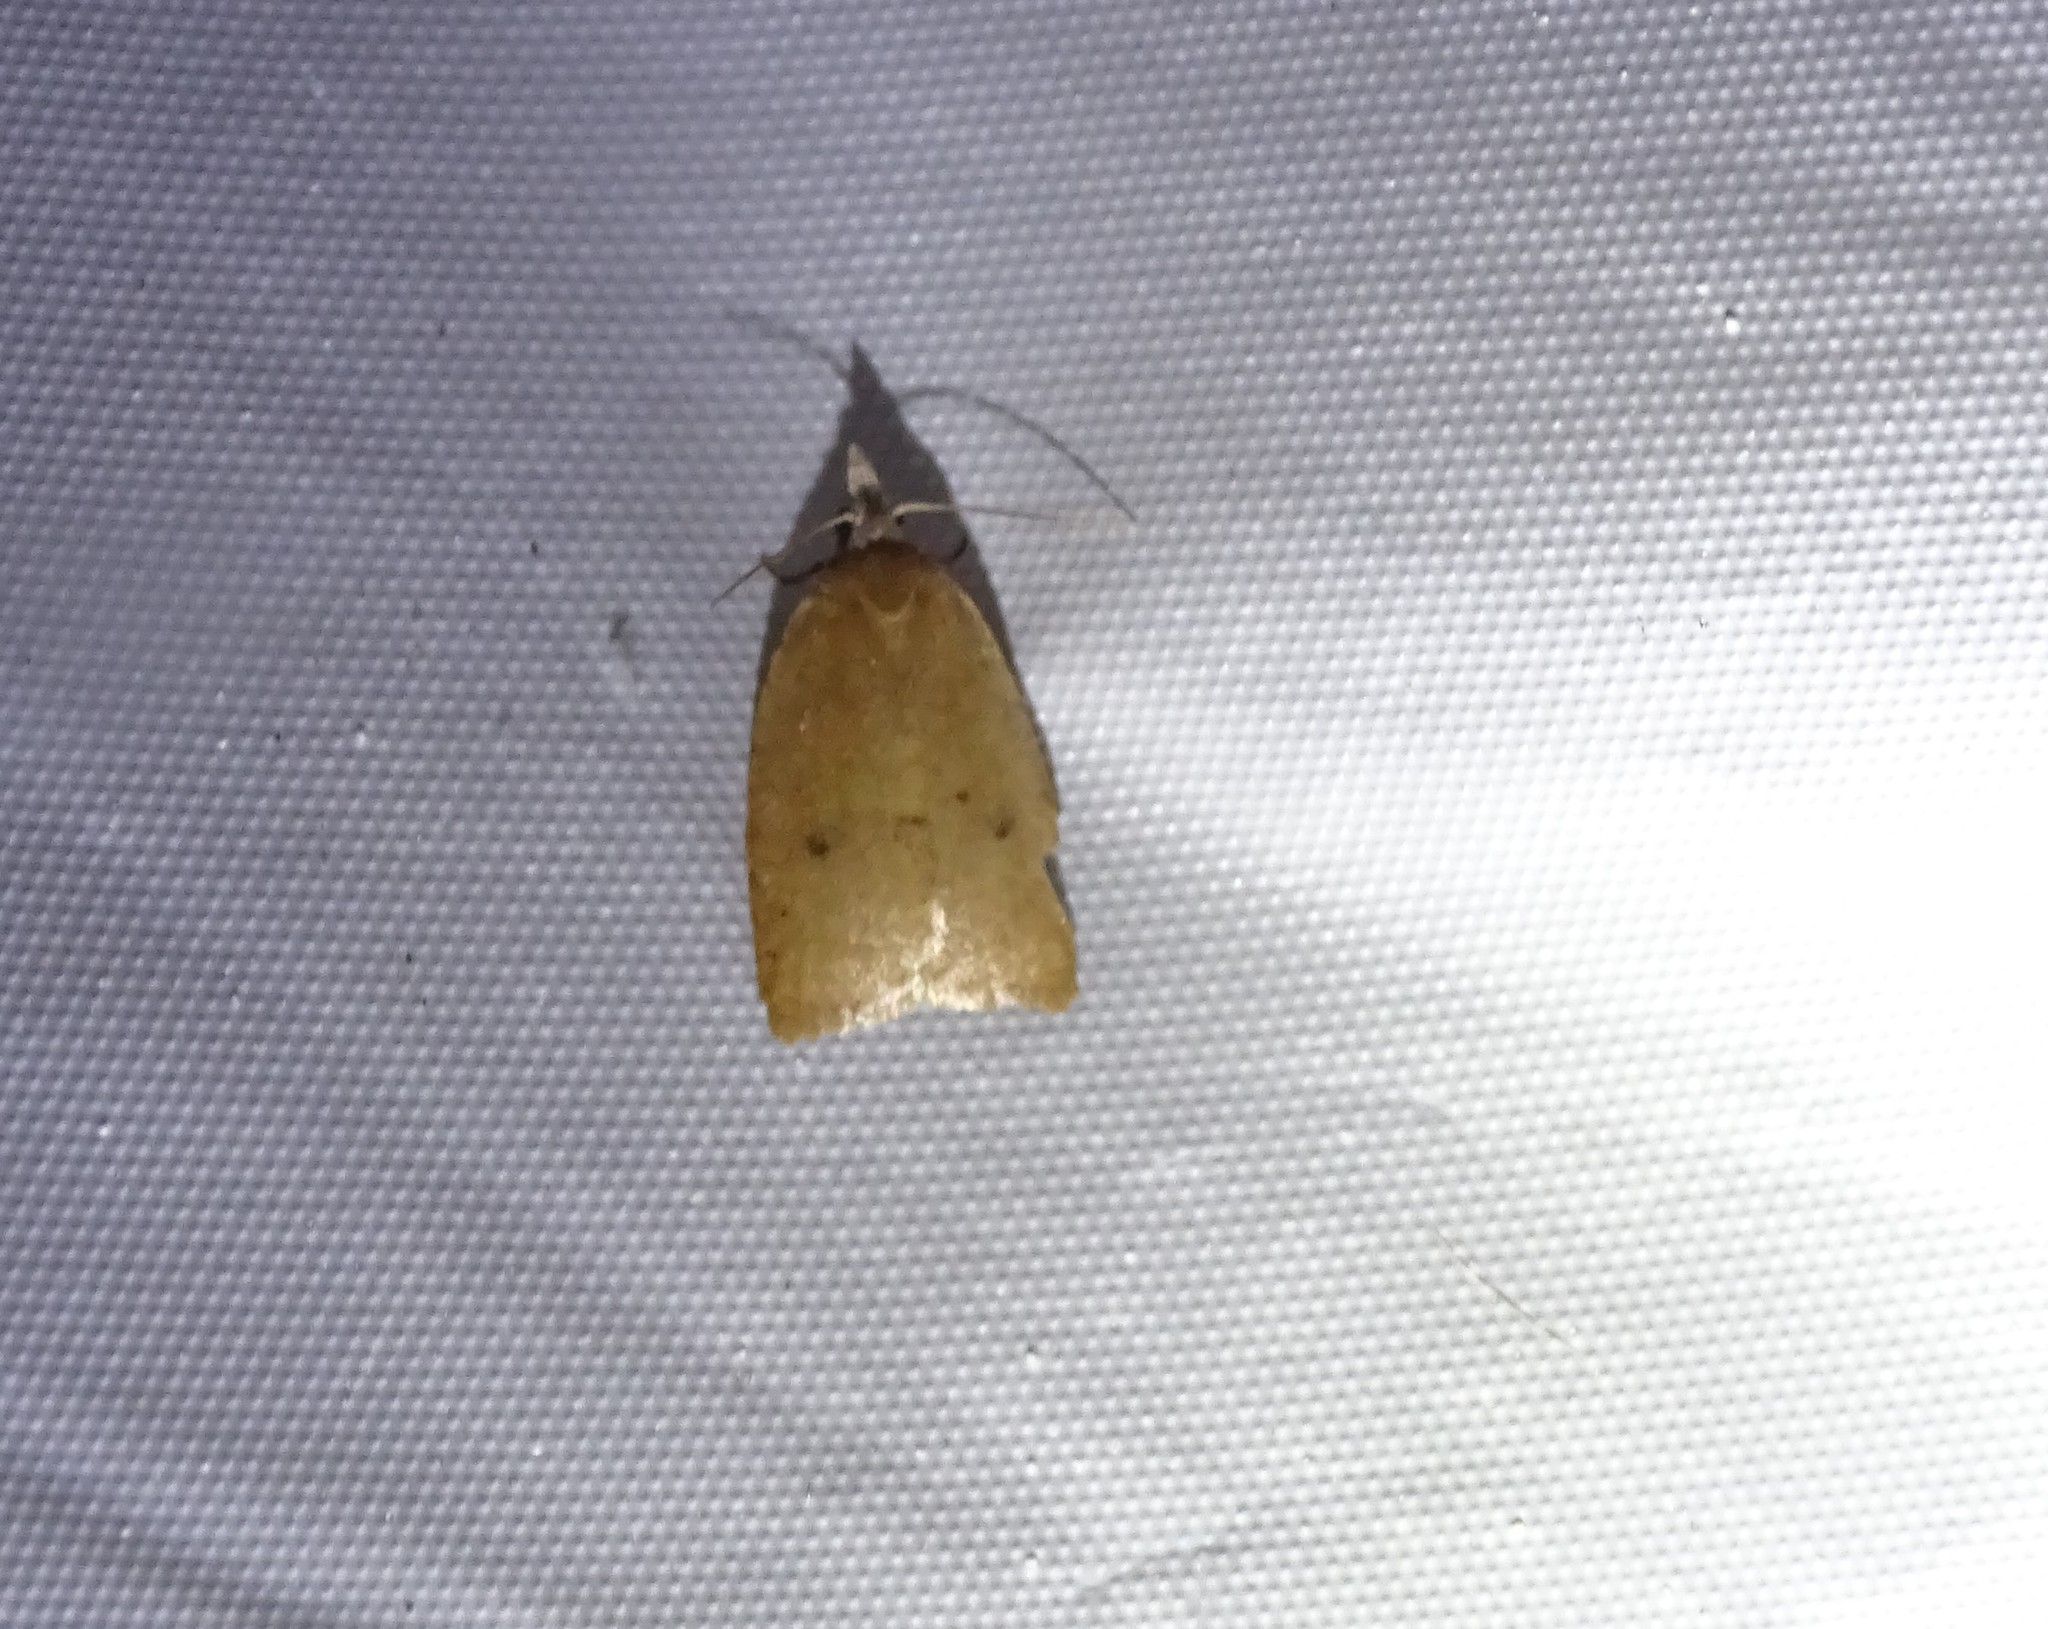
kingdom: Animalia
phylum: Arthropoda
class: Insecta
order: Lepidoptera
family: Tortricidae
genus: Sparganothoides
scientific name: Sparganothoides lentiginosana
